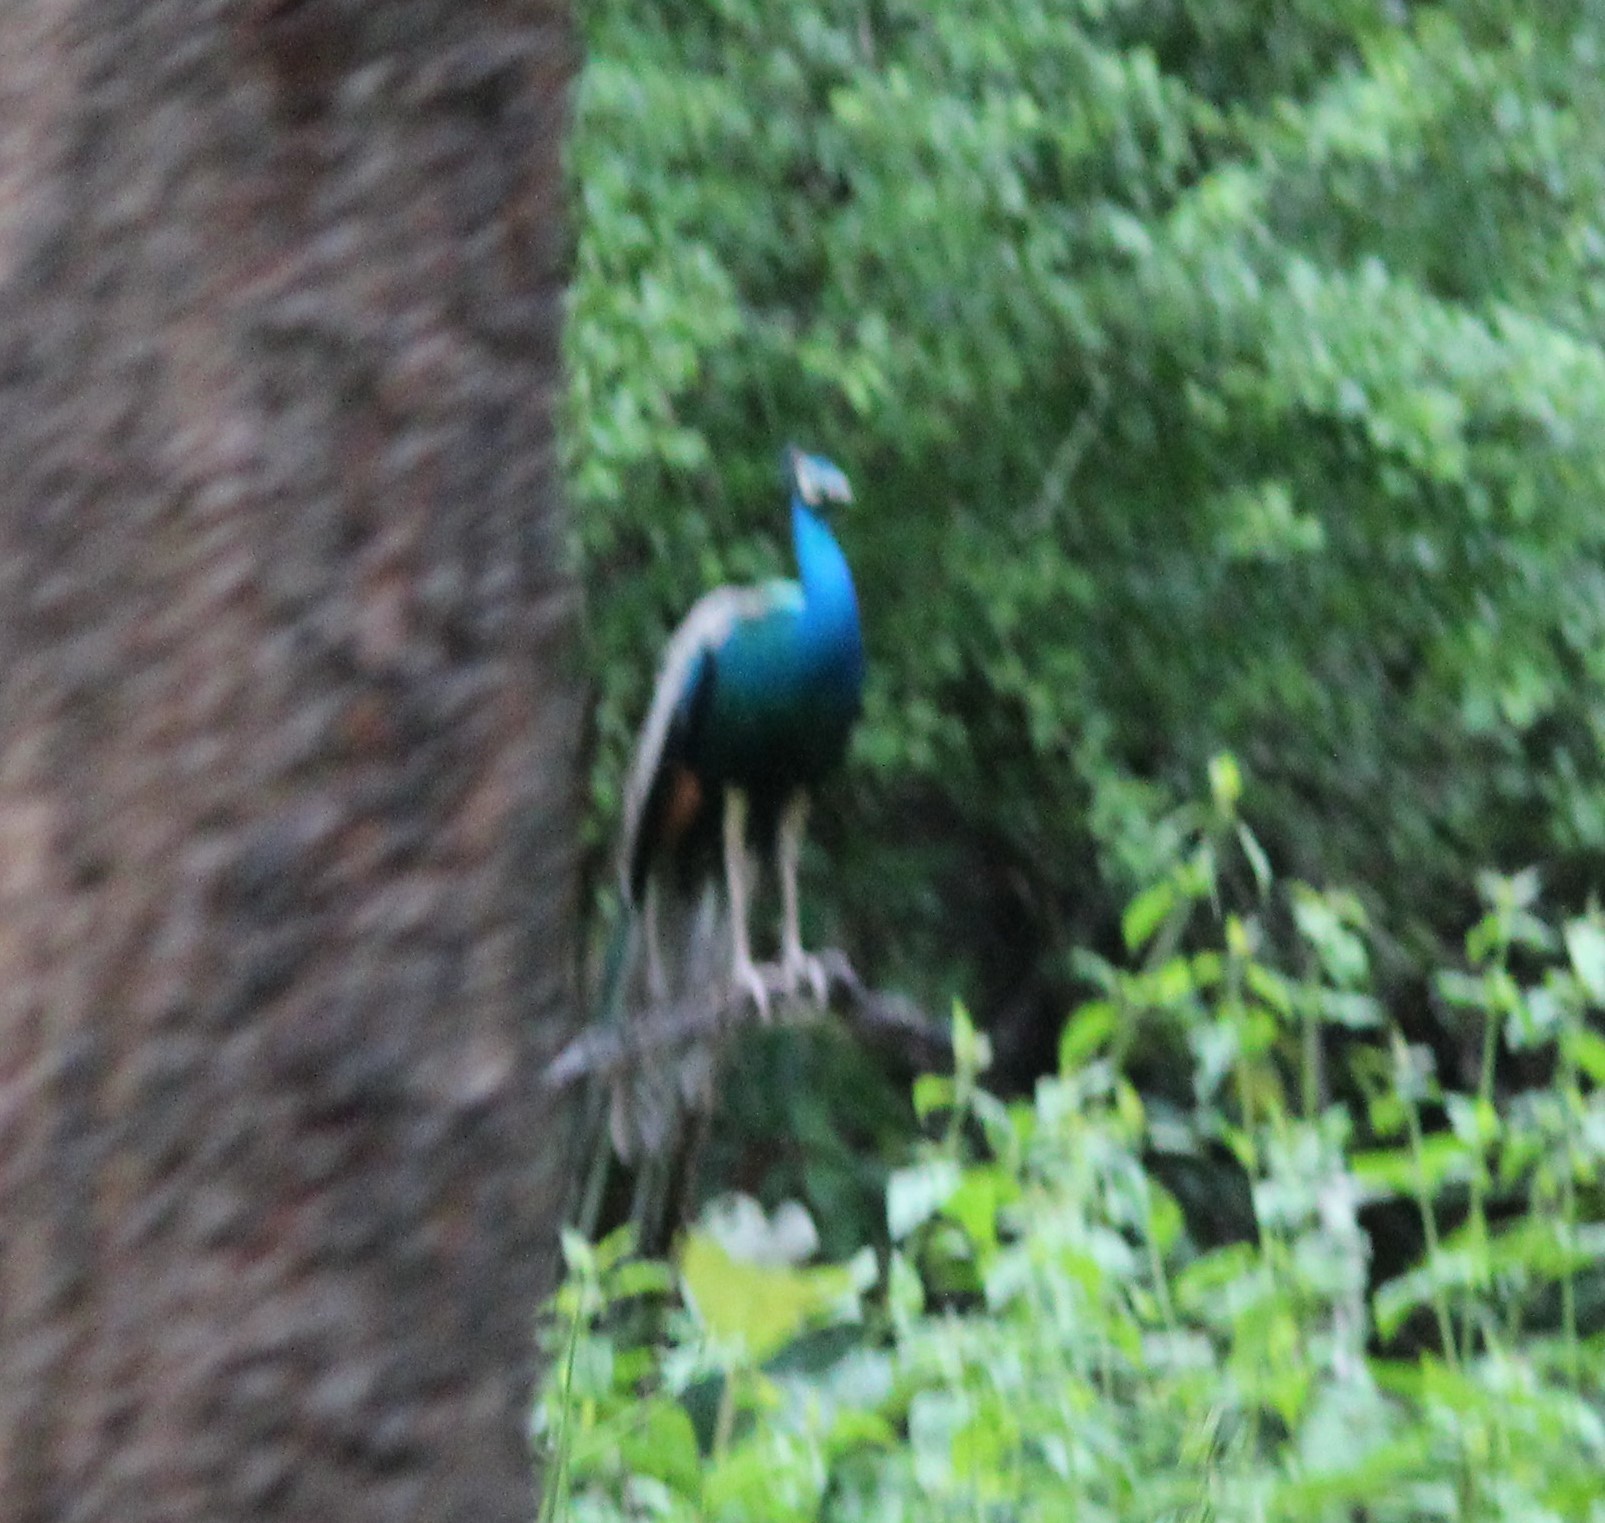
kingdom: Animalia
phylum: Chordata
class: Aves
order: Galliformes
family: Phasianidae
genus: Pavo
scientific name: Pavo cristatus
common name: Indian peafowl
